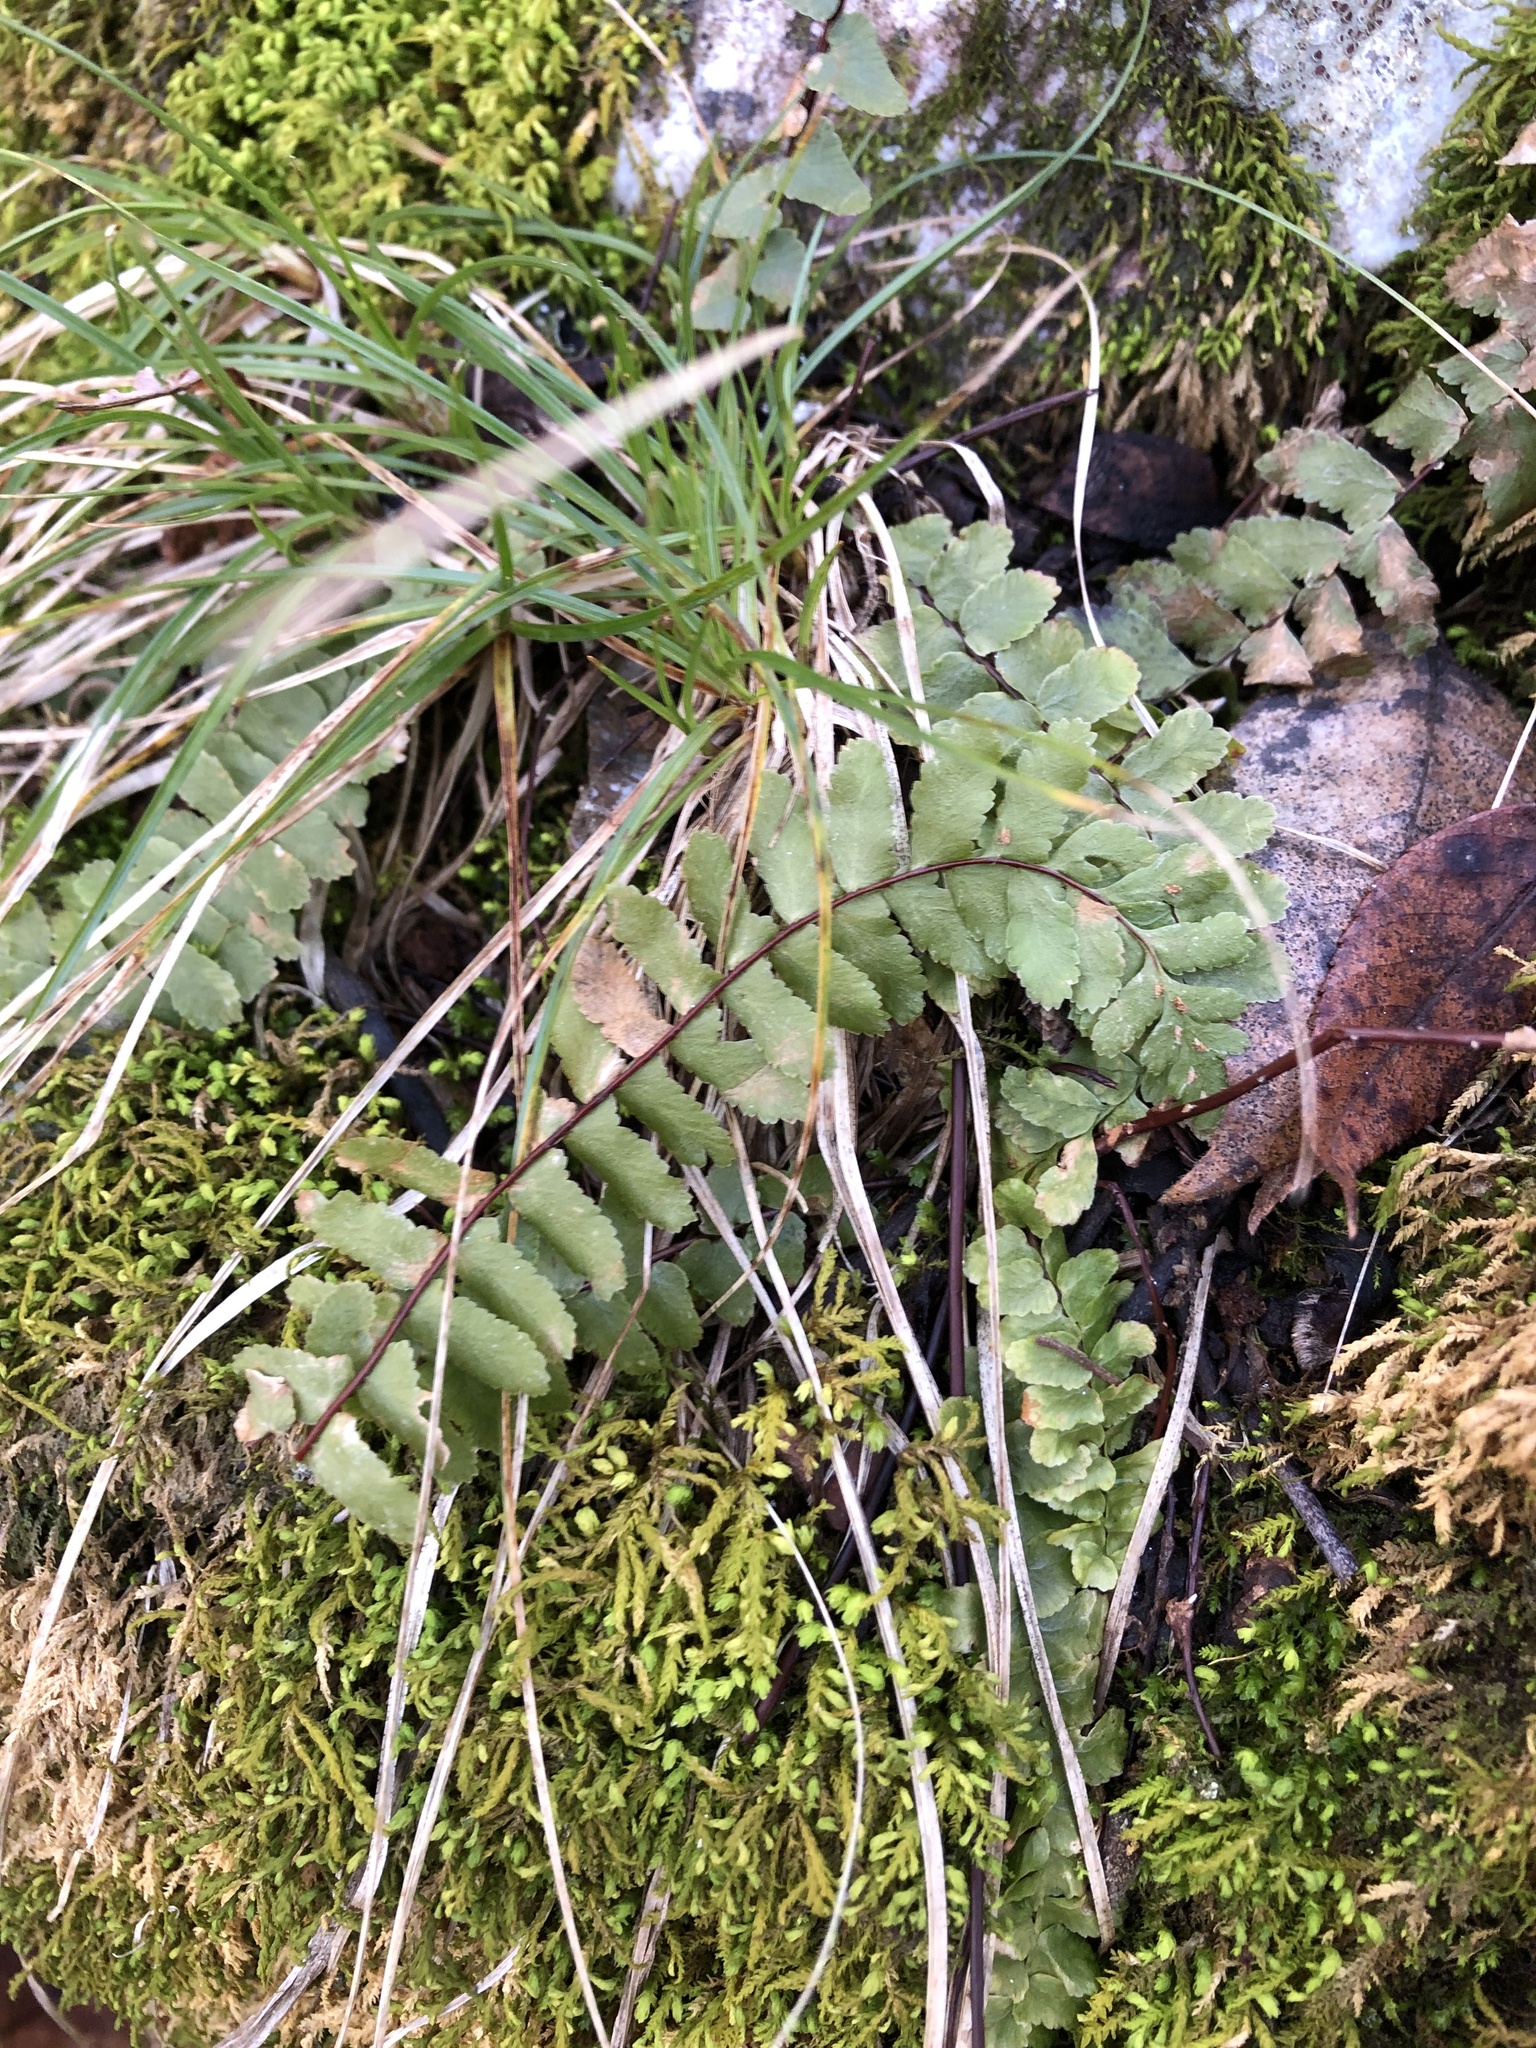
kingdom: Plantae
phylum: Tracheophyta
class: Polypodiopsida
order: Polypodiales
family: Aspleniaceae
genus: Asplenium
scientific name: Asplenium platyneuron
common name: Ebony spleenwort
